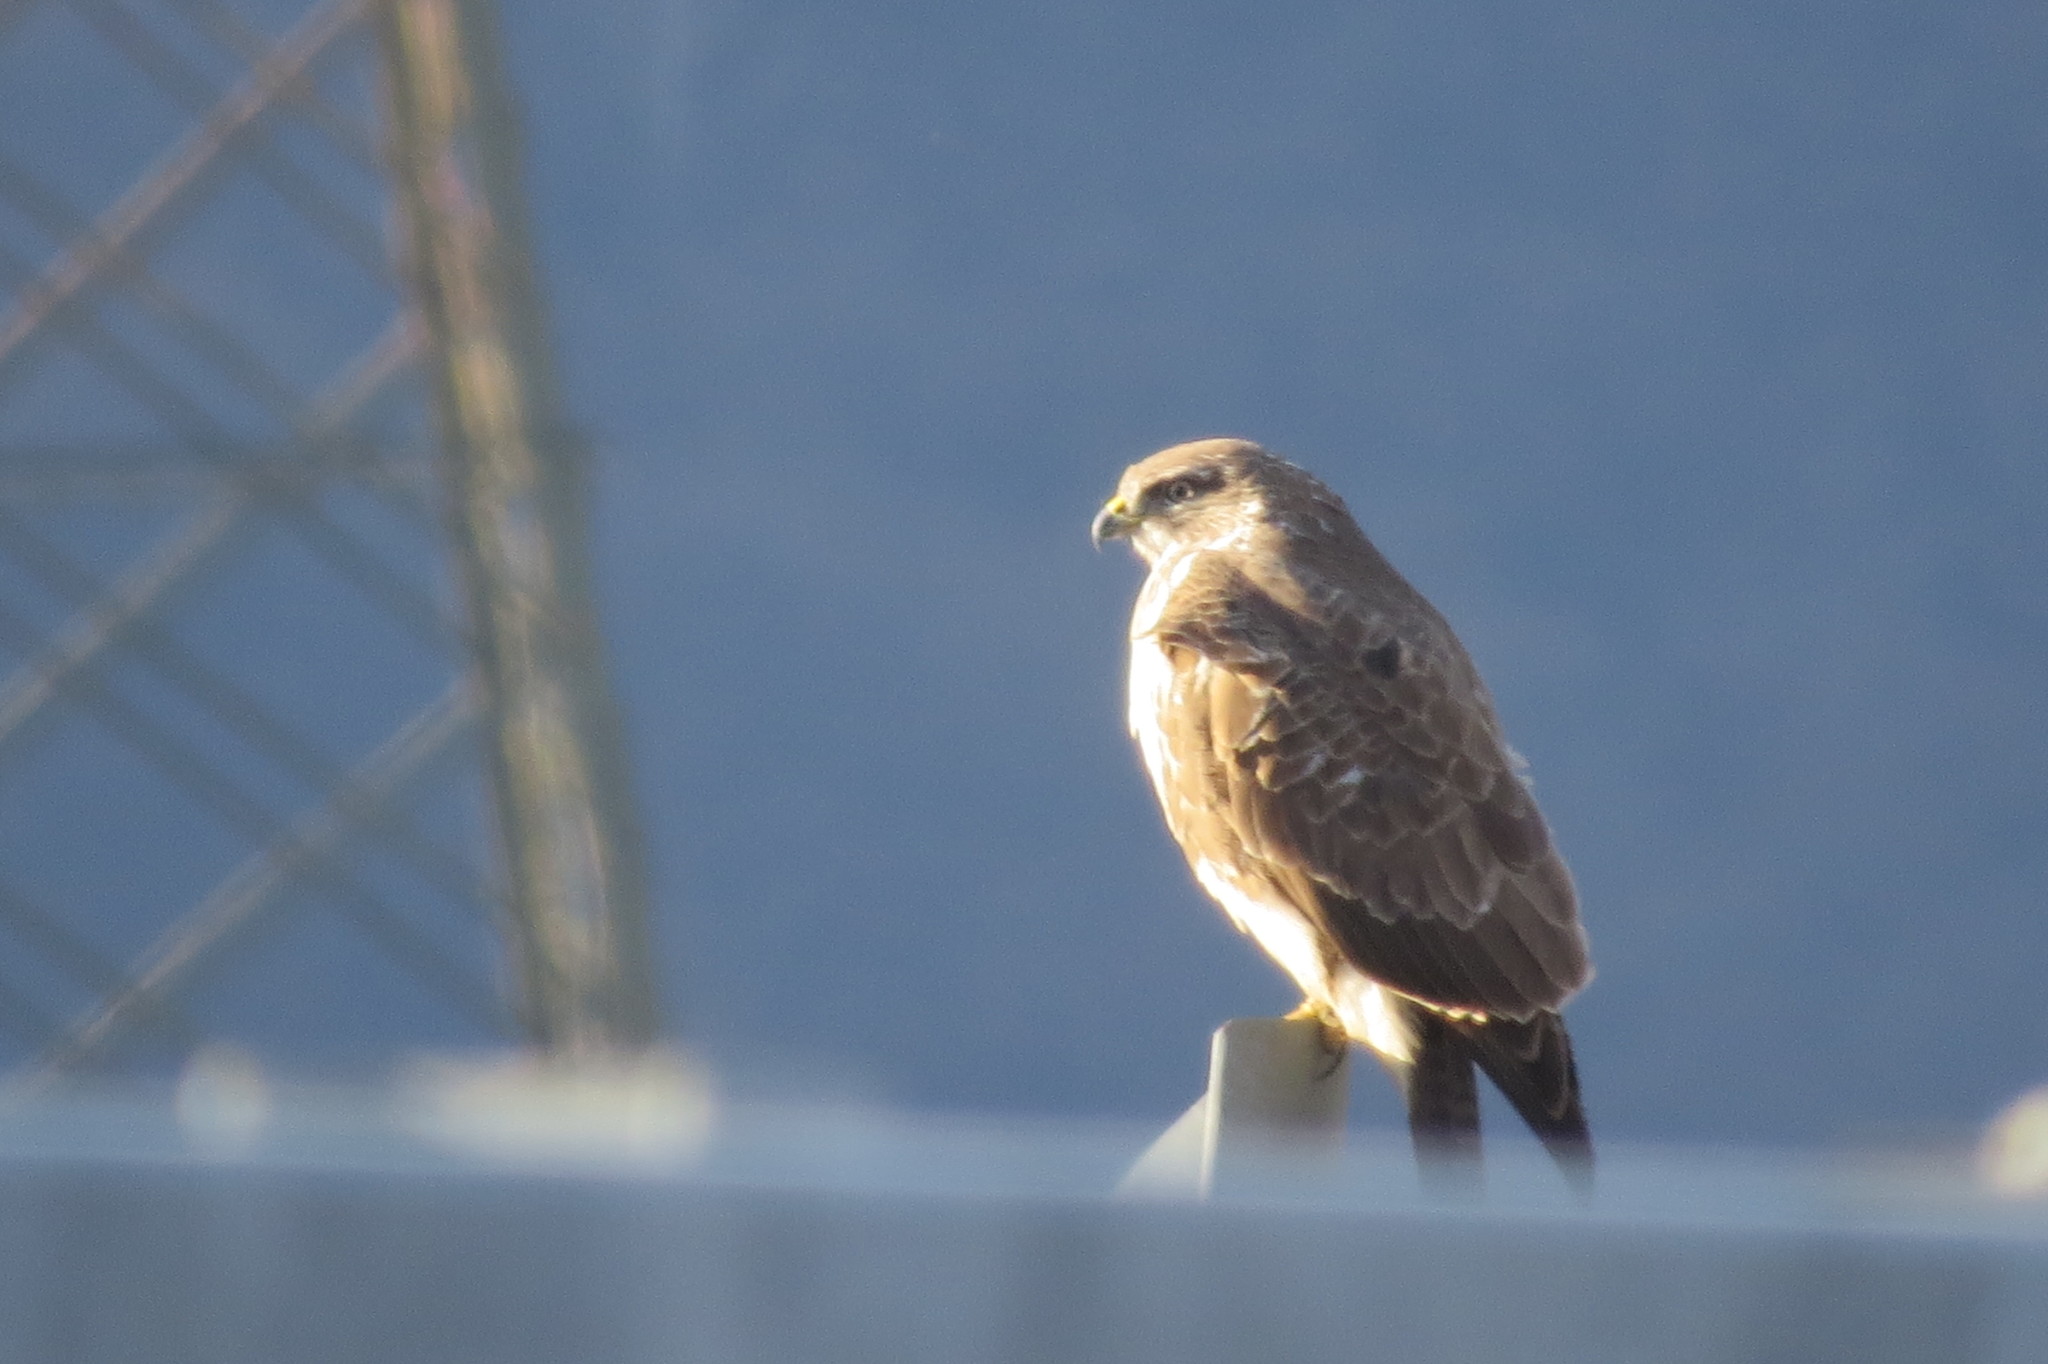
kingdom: Animalia
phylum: Chordata
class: Aves
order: Accipitriformes
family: Accipitridae
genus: Buteo
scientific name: Buteo buteo
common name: Common buzzard
